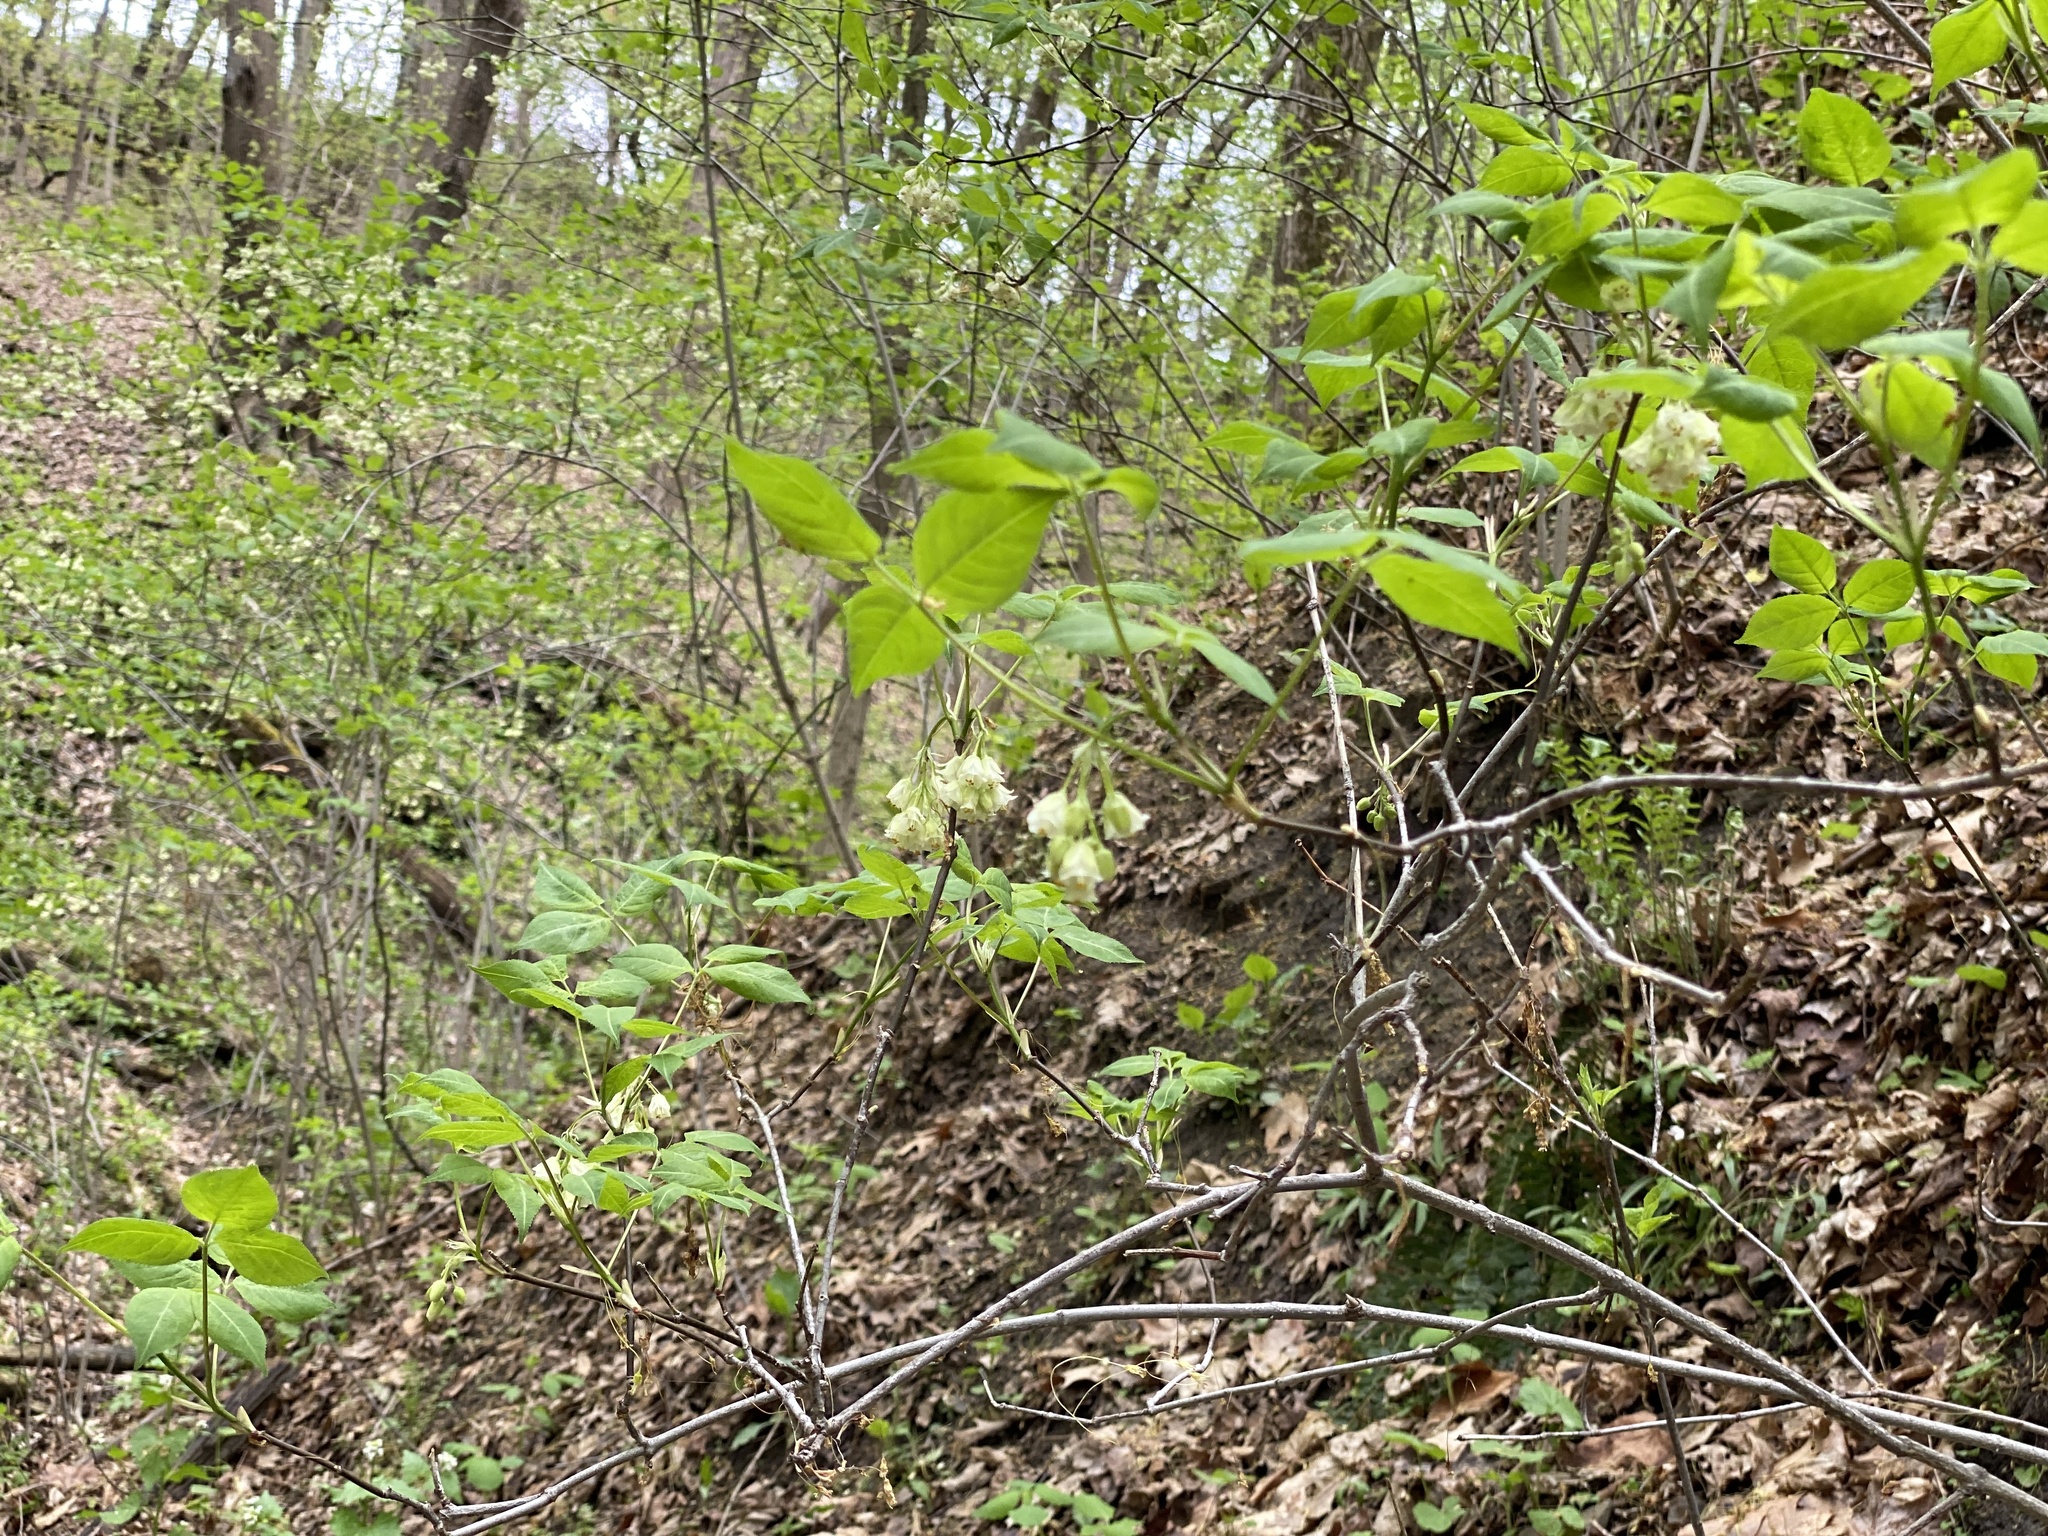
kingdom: Plantae
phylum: Tracheophyta
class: Magnoliopsida
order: Crossosomatales
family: Staphyleaceae
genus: Staphylea
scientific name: Staphylea trifolia
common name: American bladdernut
